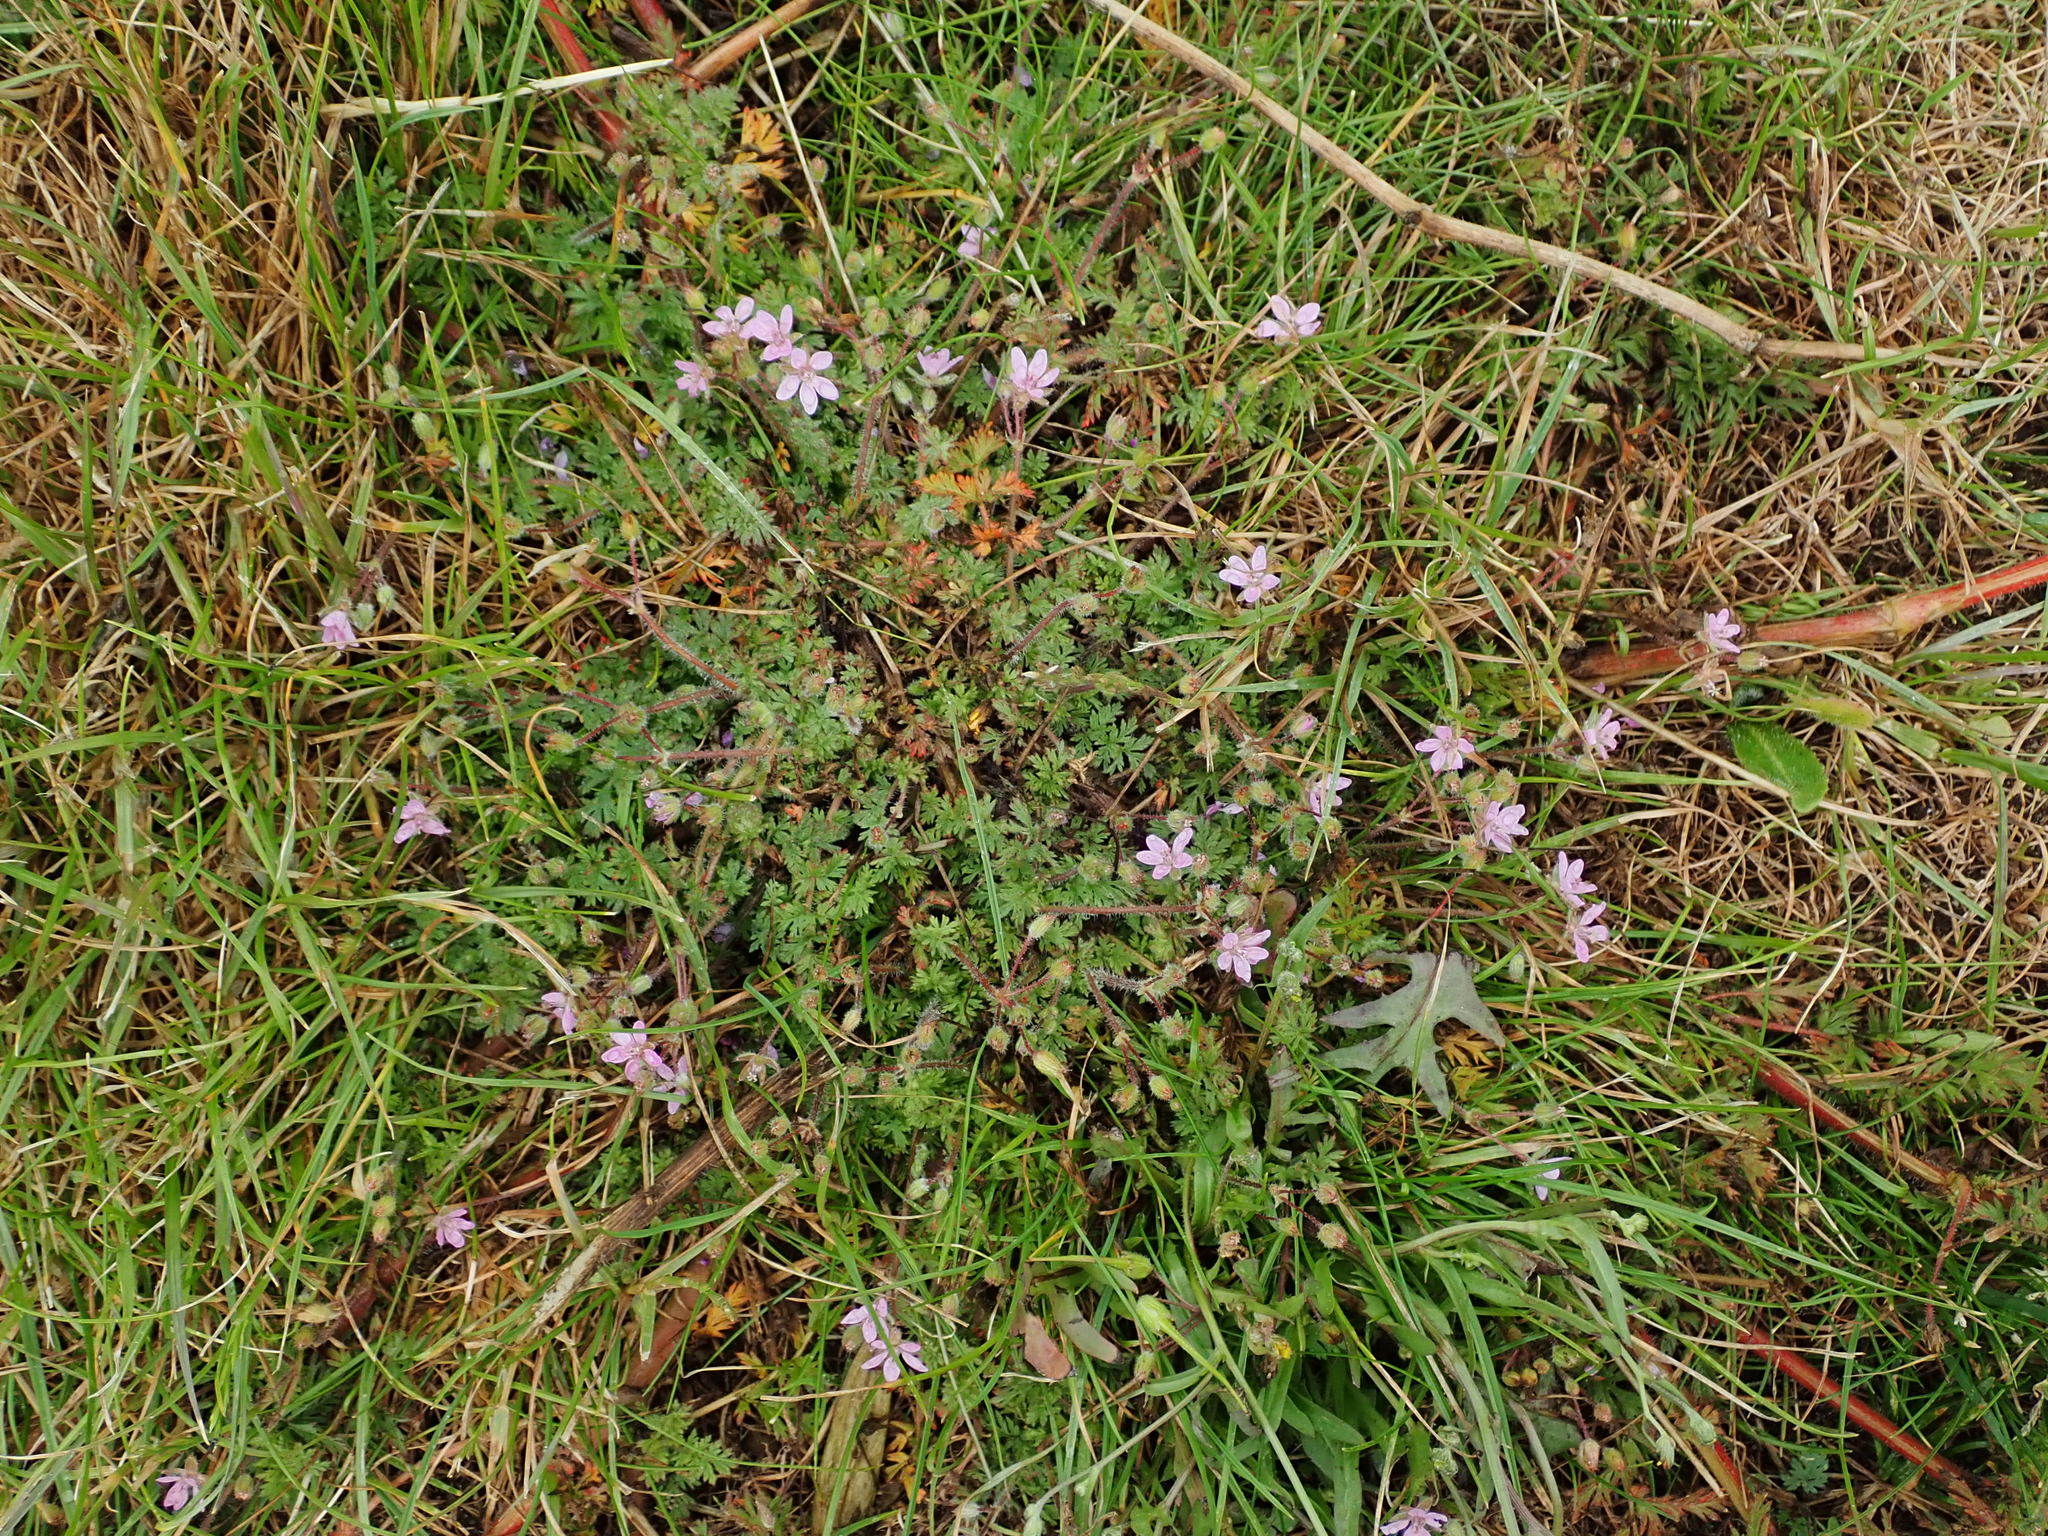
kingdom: Plantae
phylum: Tracheophyta
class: Magnoliopsida
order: Geraniales
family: Geraniaceae
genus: Erodium
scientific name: Erodium cicutarium
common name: Common stork's-bill
